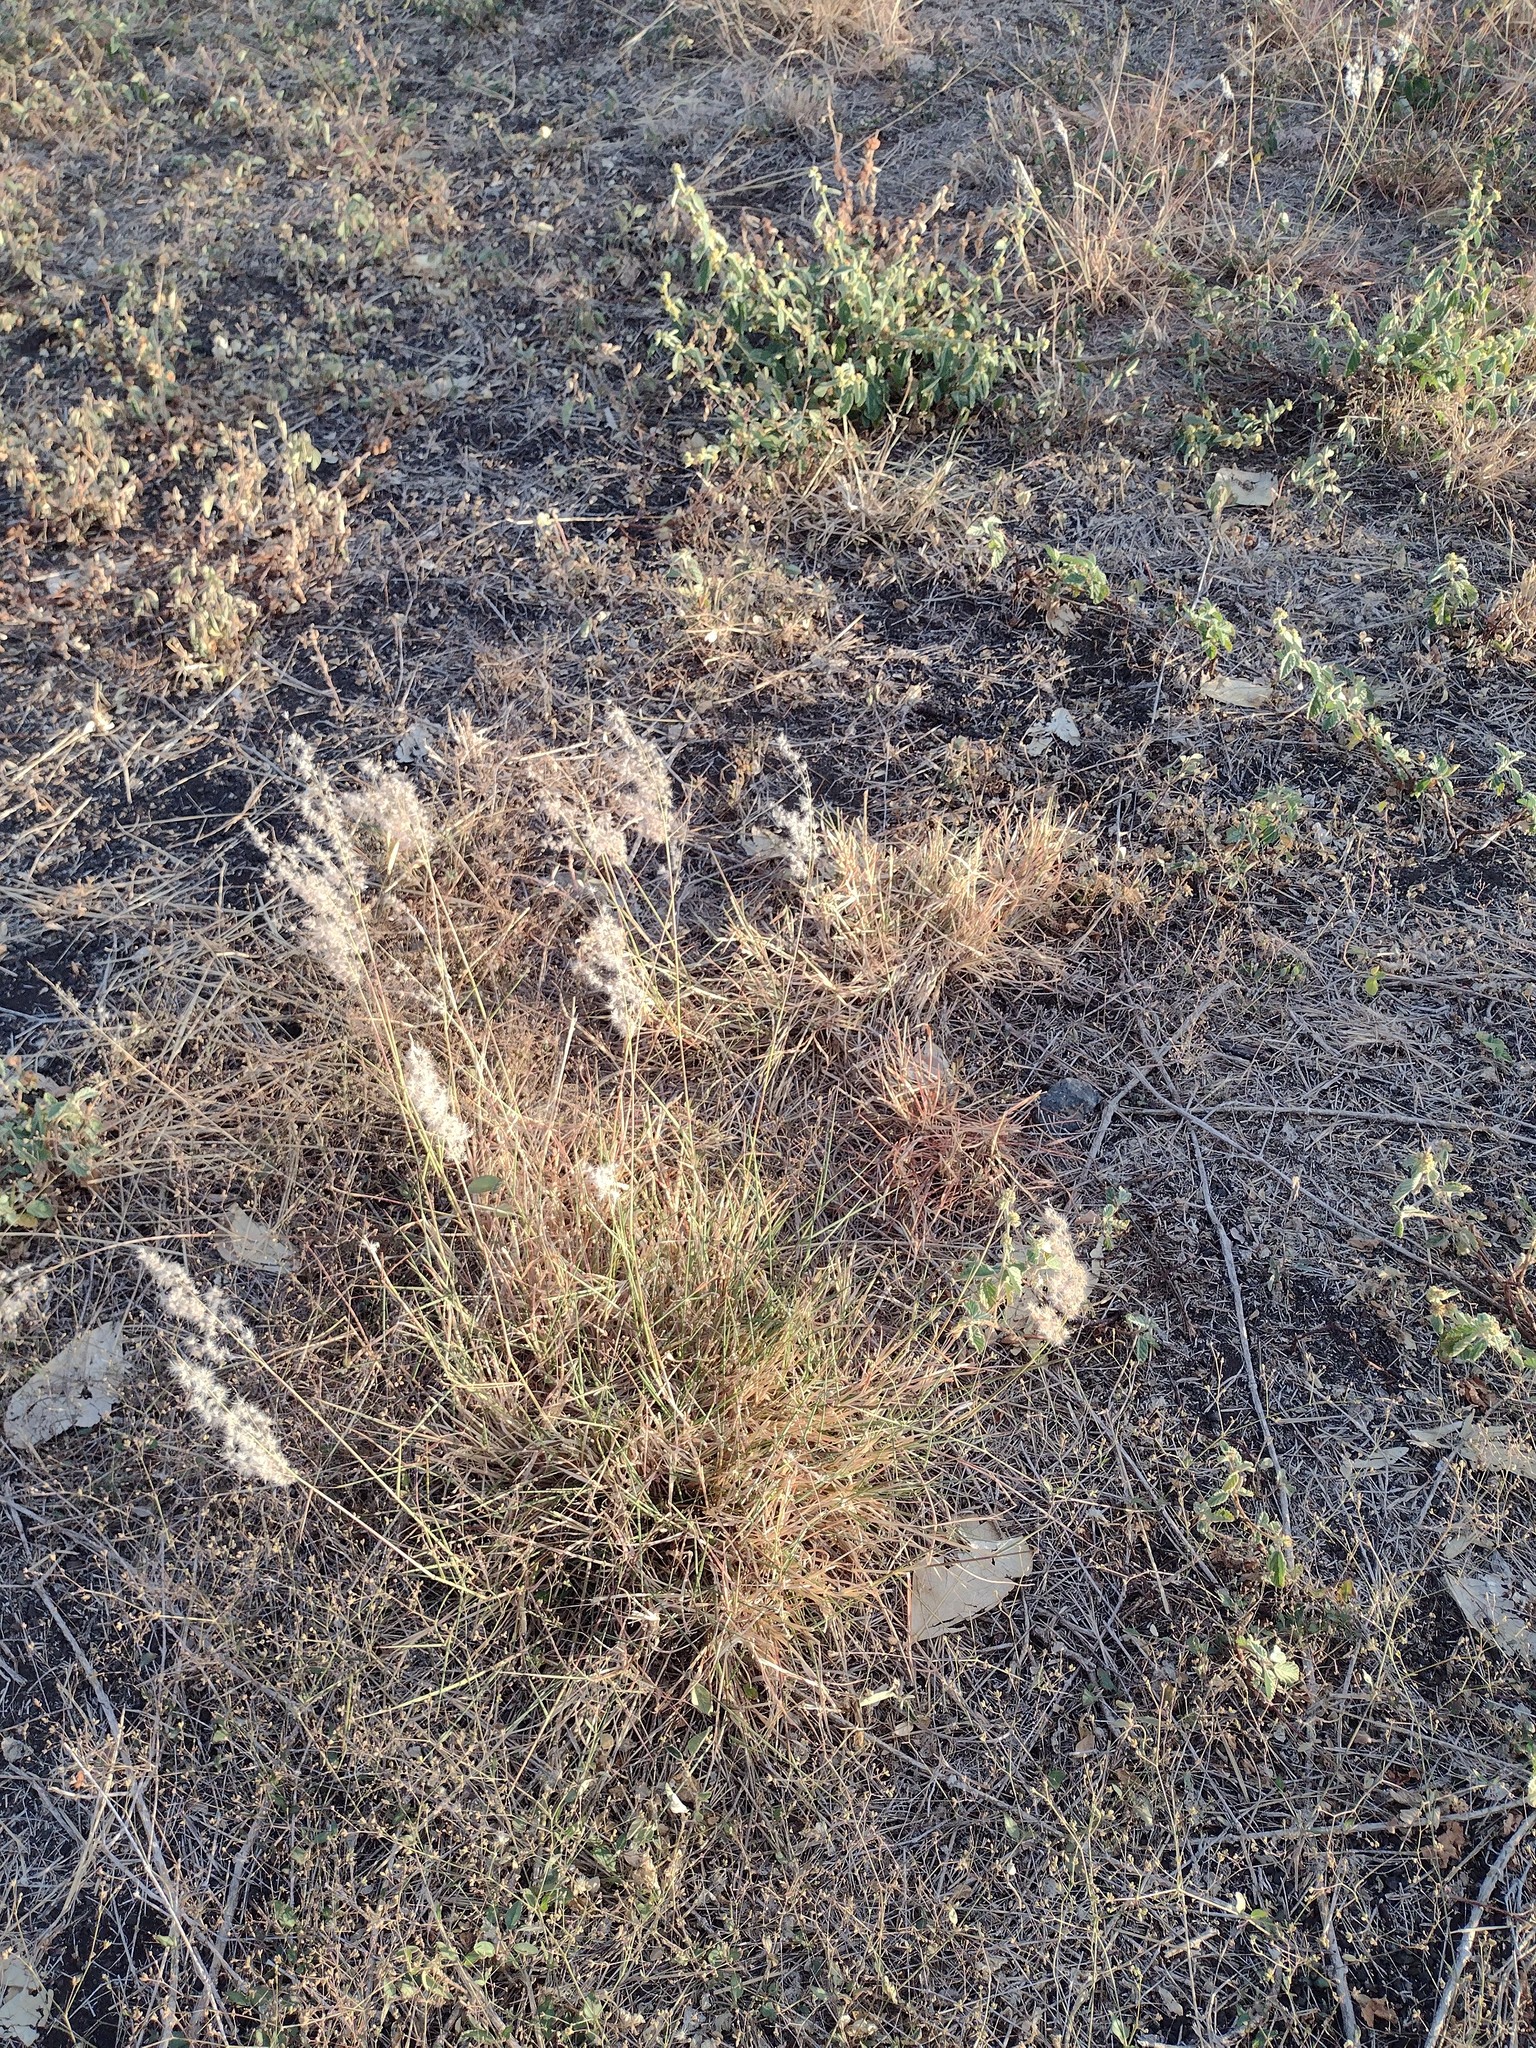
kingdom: Plantae
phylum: Tracheophyta
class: Liliopsida
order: Poales
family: Poaceae
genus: Melinis
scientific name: Melinis repens
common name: Rose natal grass
